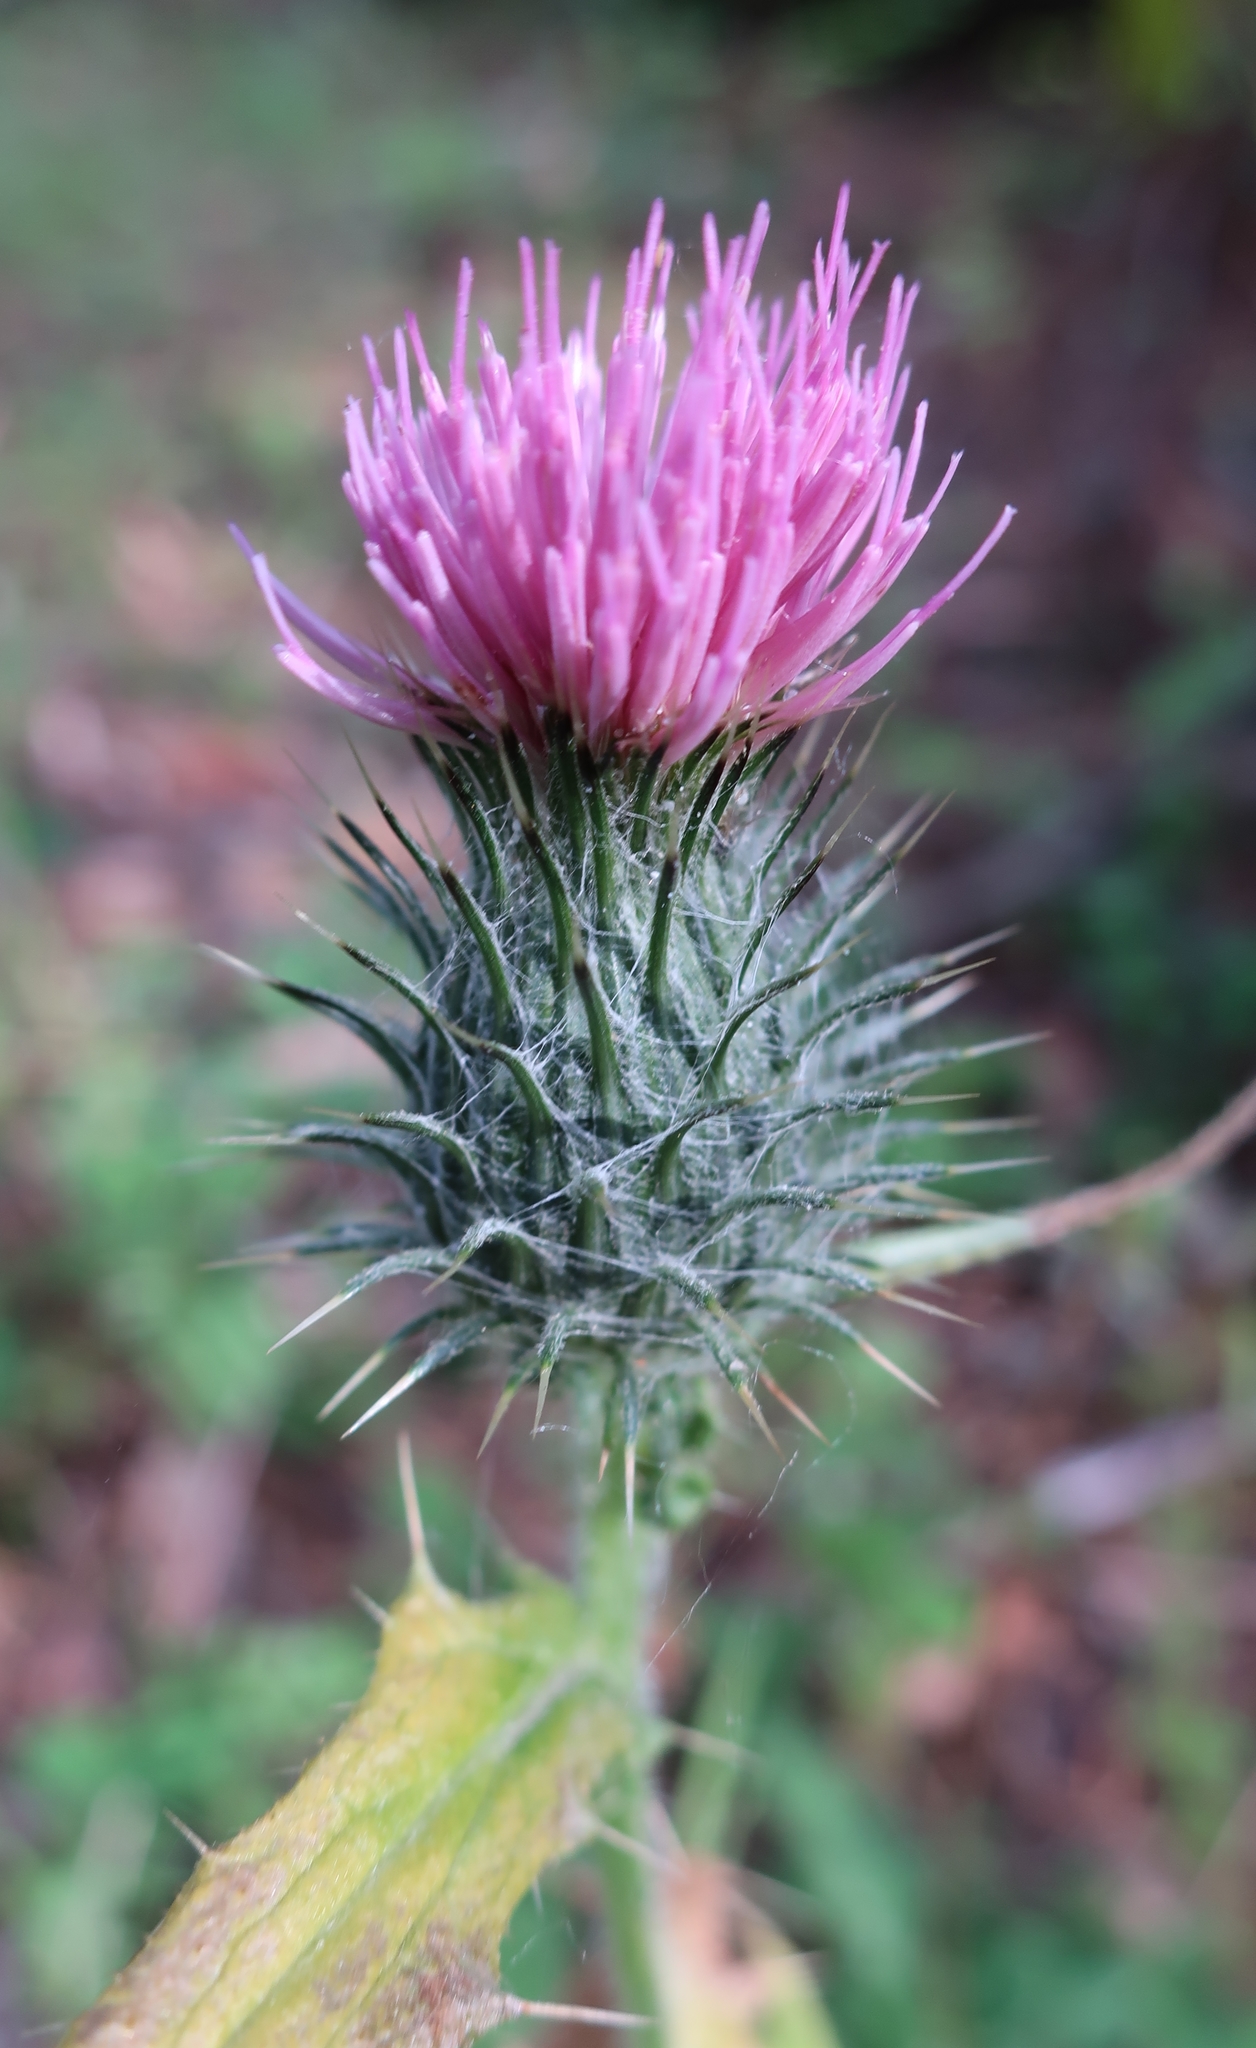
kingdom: Plantae
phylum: Tracheophyta
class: Magnoliopsida
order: Asterales
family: Asteraceae
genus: Cirsium
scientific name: Cirsium vulgare
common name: Bull thistle
